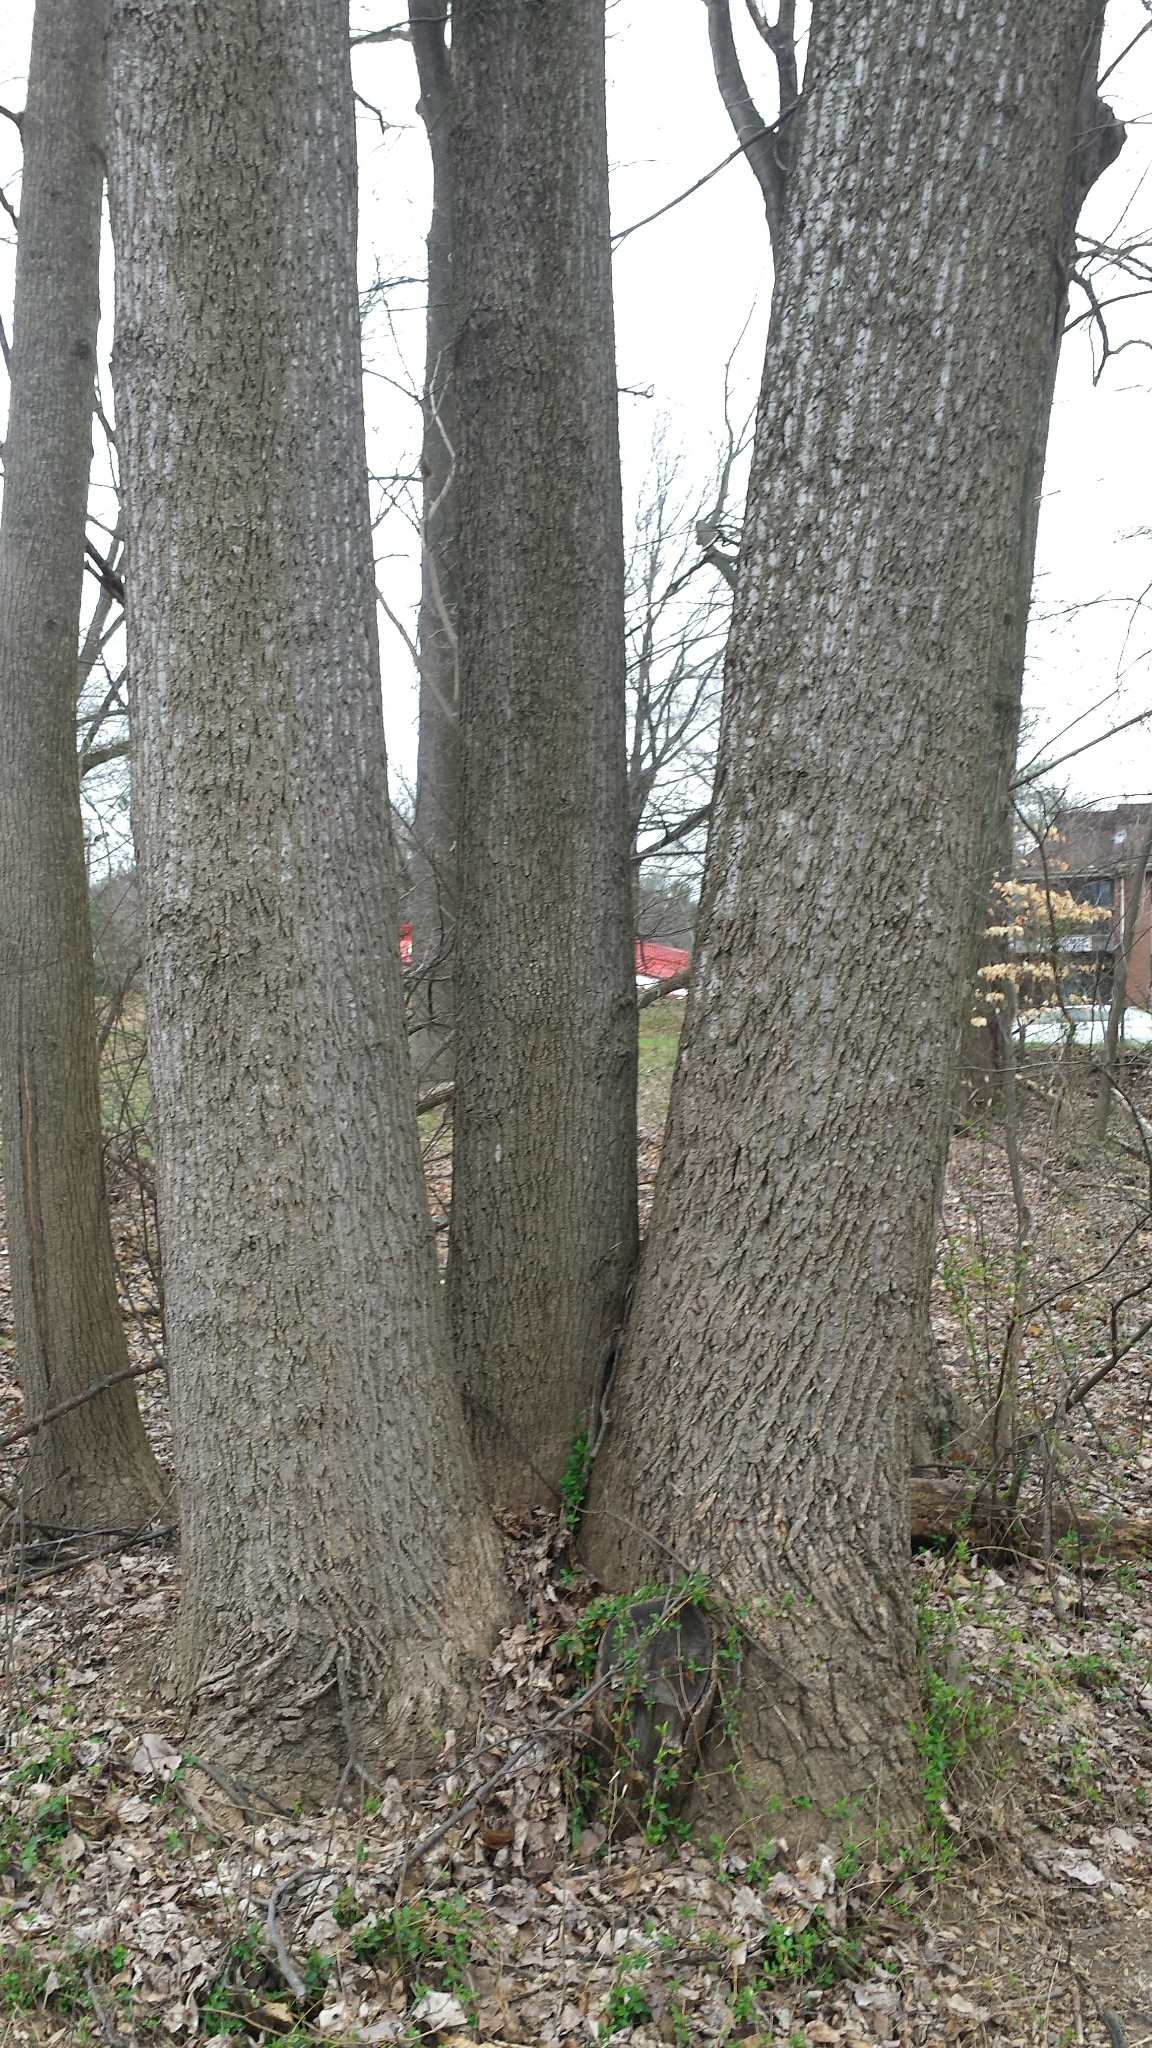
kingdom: Plantae
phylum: Tracheophyta
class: Magnoliopsida
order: Magnoliales
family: Magnoliaceae
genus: Liriodendron
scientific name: Liriodendron tulipifera
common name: Tulip tree
